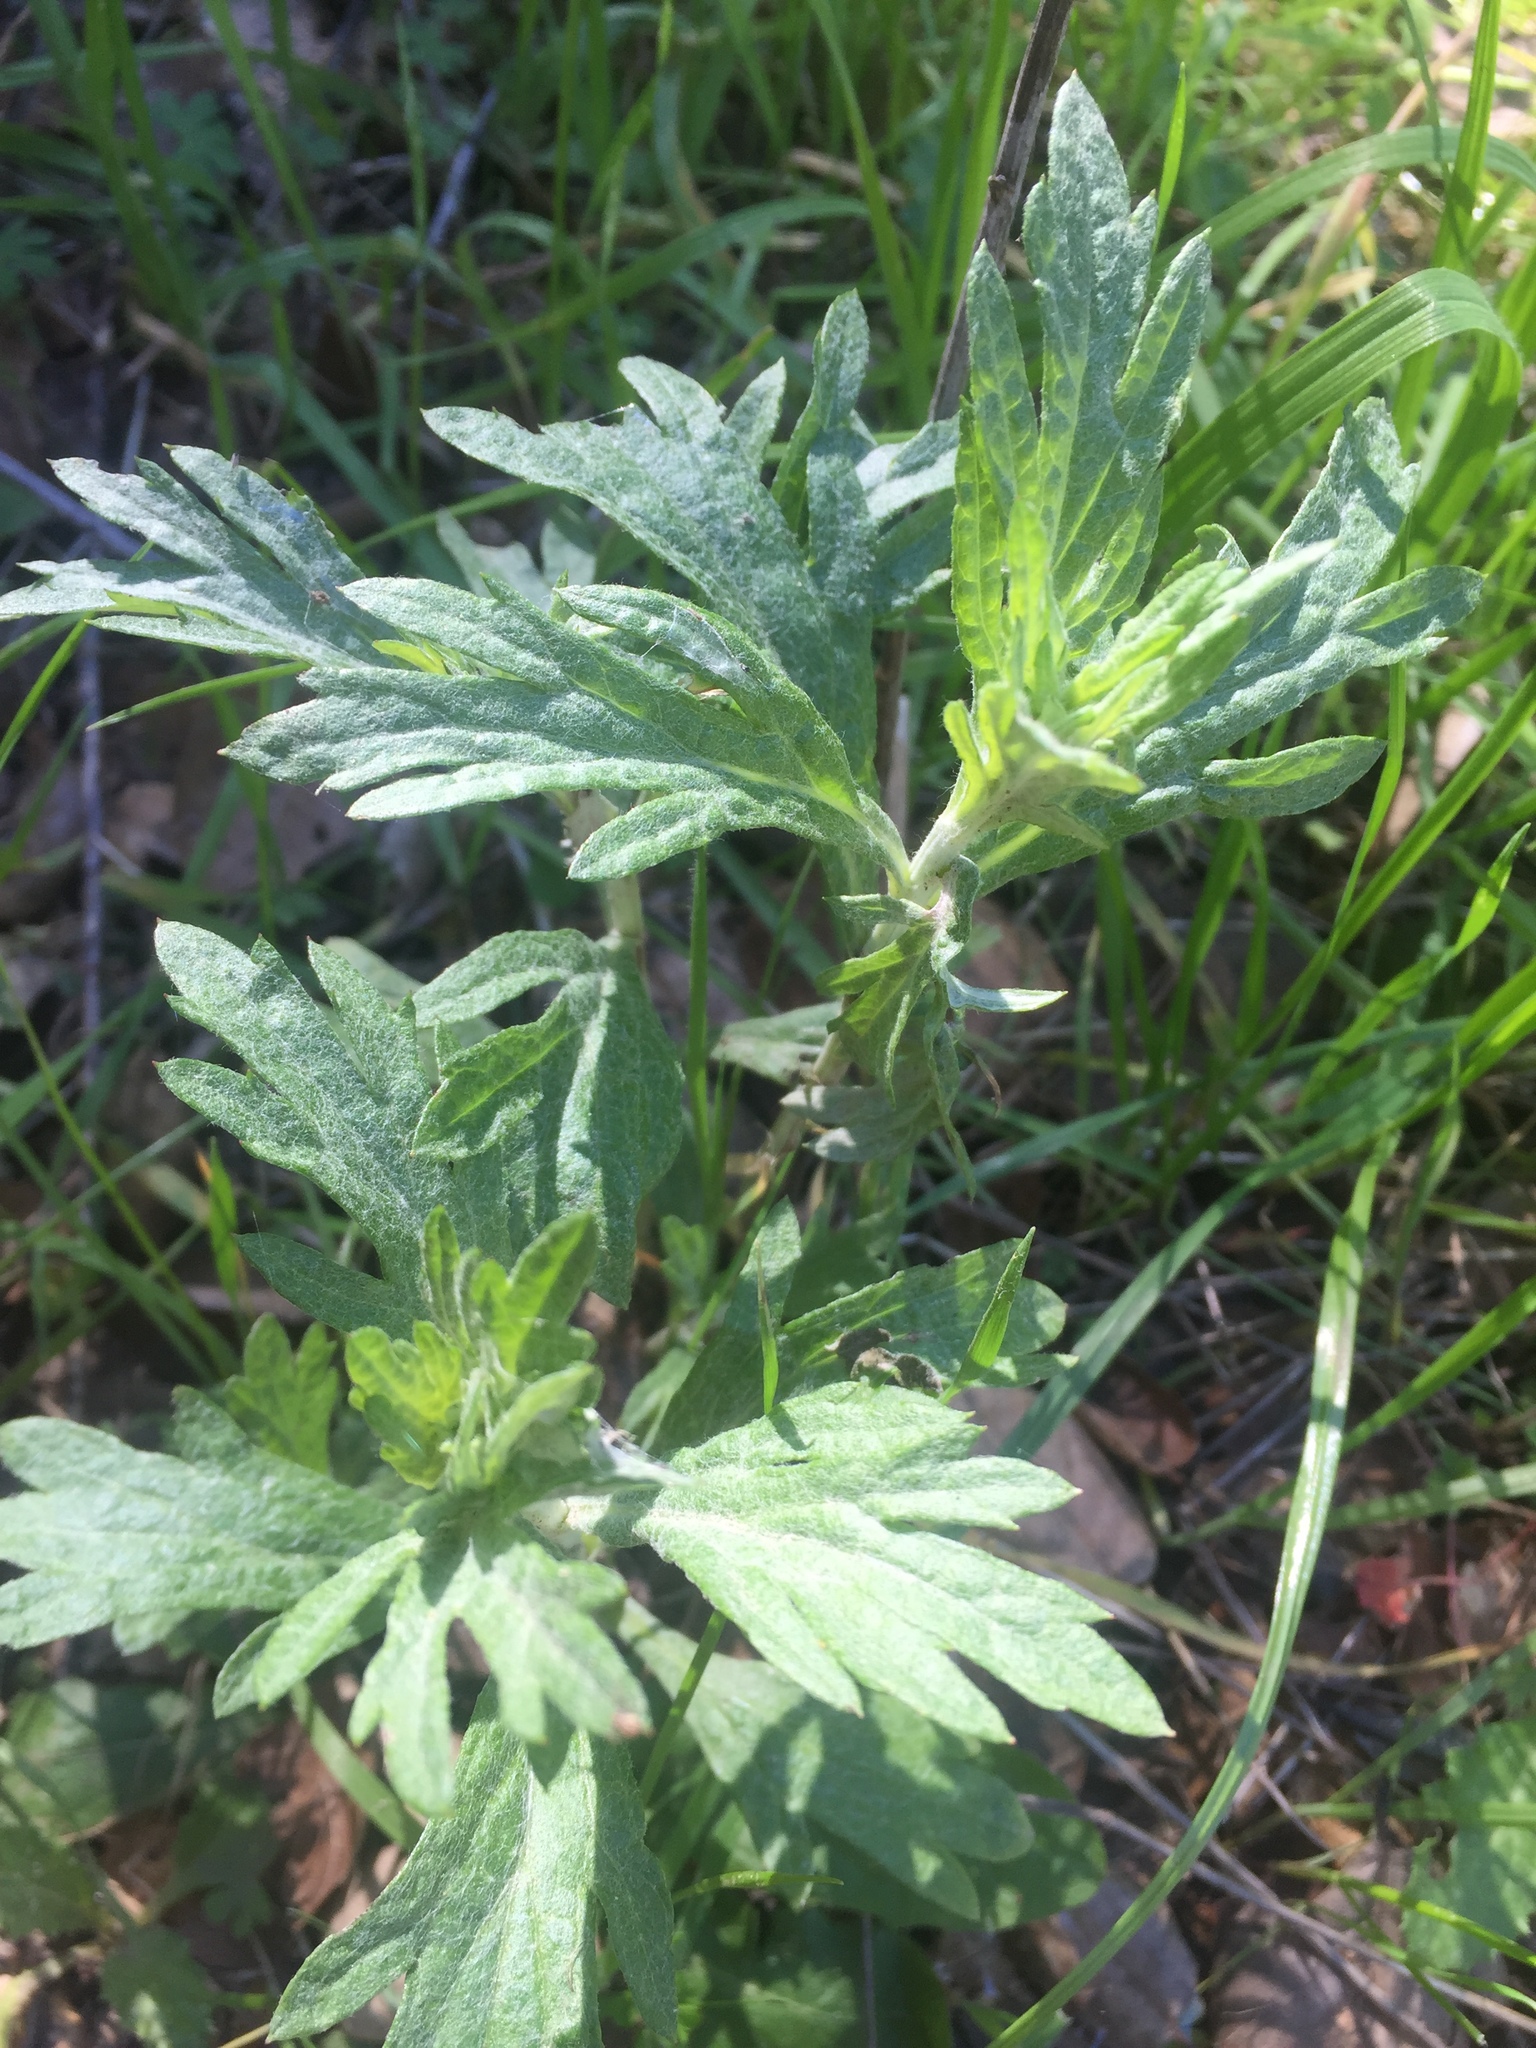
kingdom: Plantae
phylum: Tracheophyta
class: Magnoliopsida
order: Asterales
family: Asteraceae
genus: Artemisia
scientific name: Artemisia douglasiana
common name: Northwest mugwort
